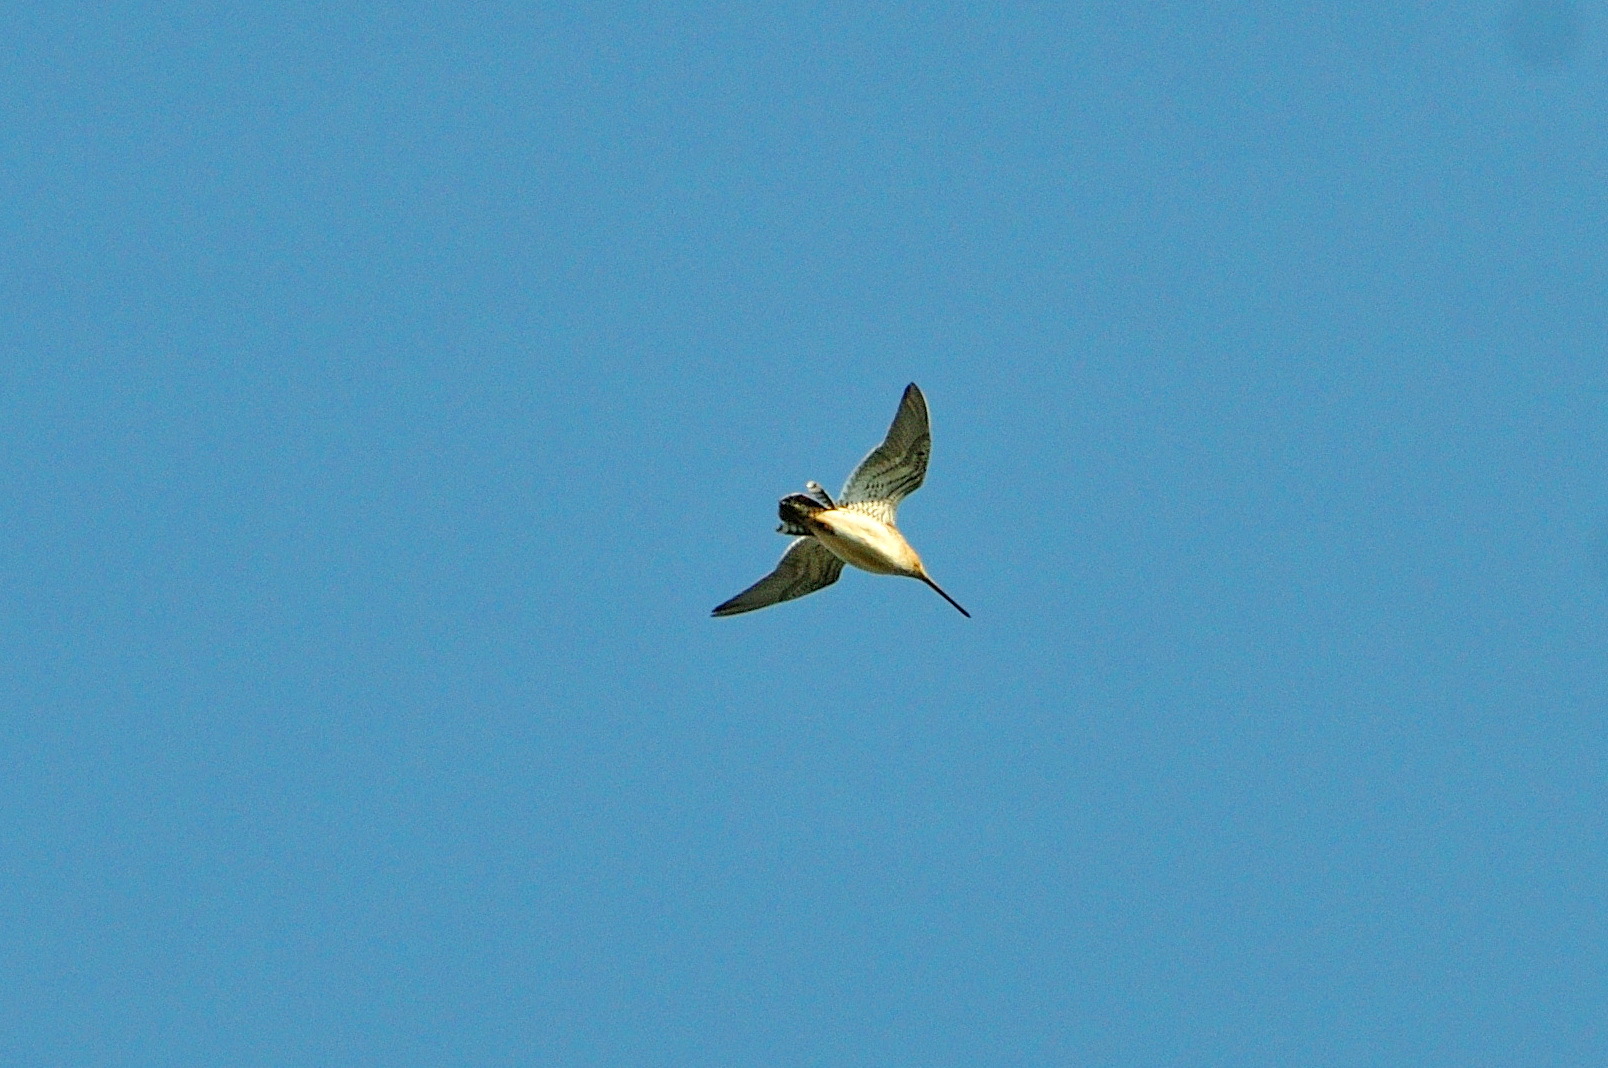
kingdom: Animalia
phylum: Chordata
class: Aves
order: Charadriiformes
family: Scolopacidae
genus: Gallinago
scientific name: Gallinago gallinago
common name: Common snipe
